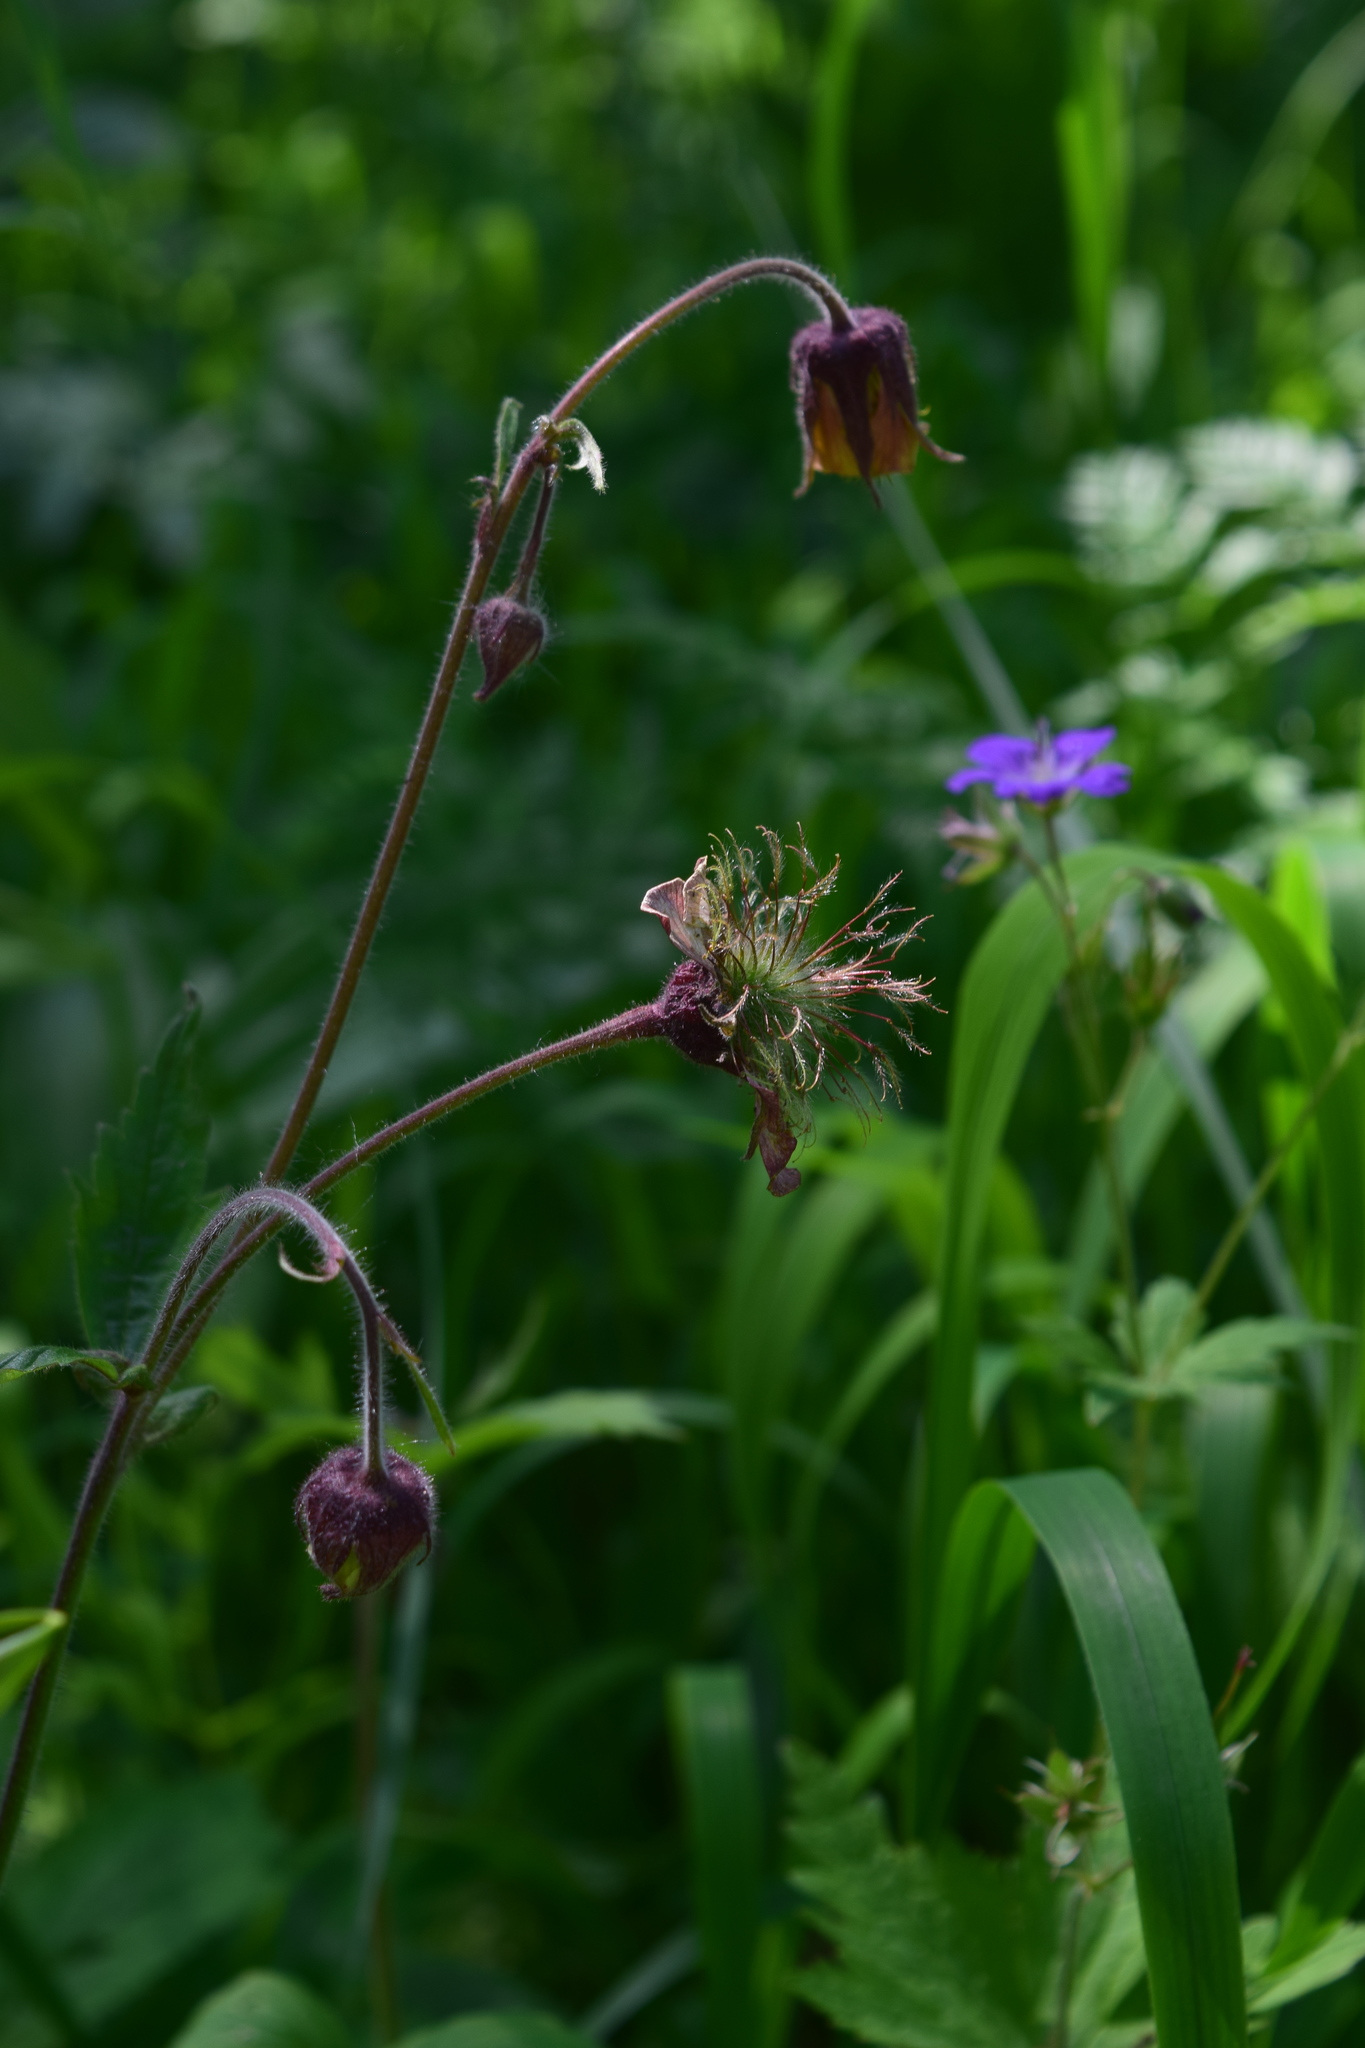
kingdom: Plantae
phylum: Tracheophyta
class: Magnoliopsida
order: Rosales
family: Rosaceae
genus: Geum
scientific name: Geum rivale
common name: Water avens
